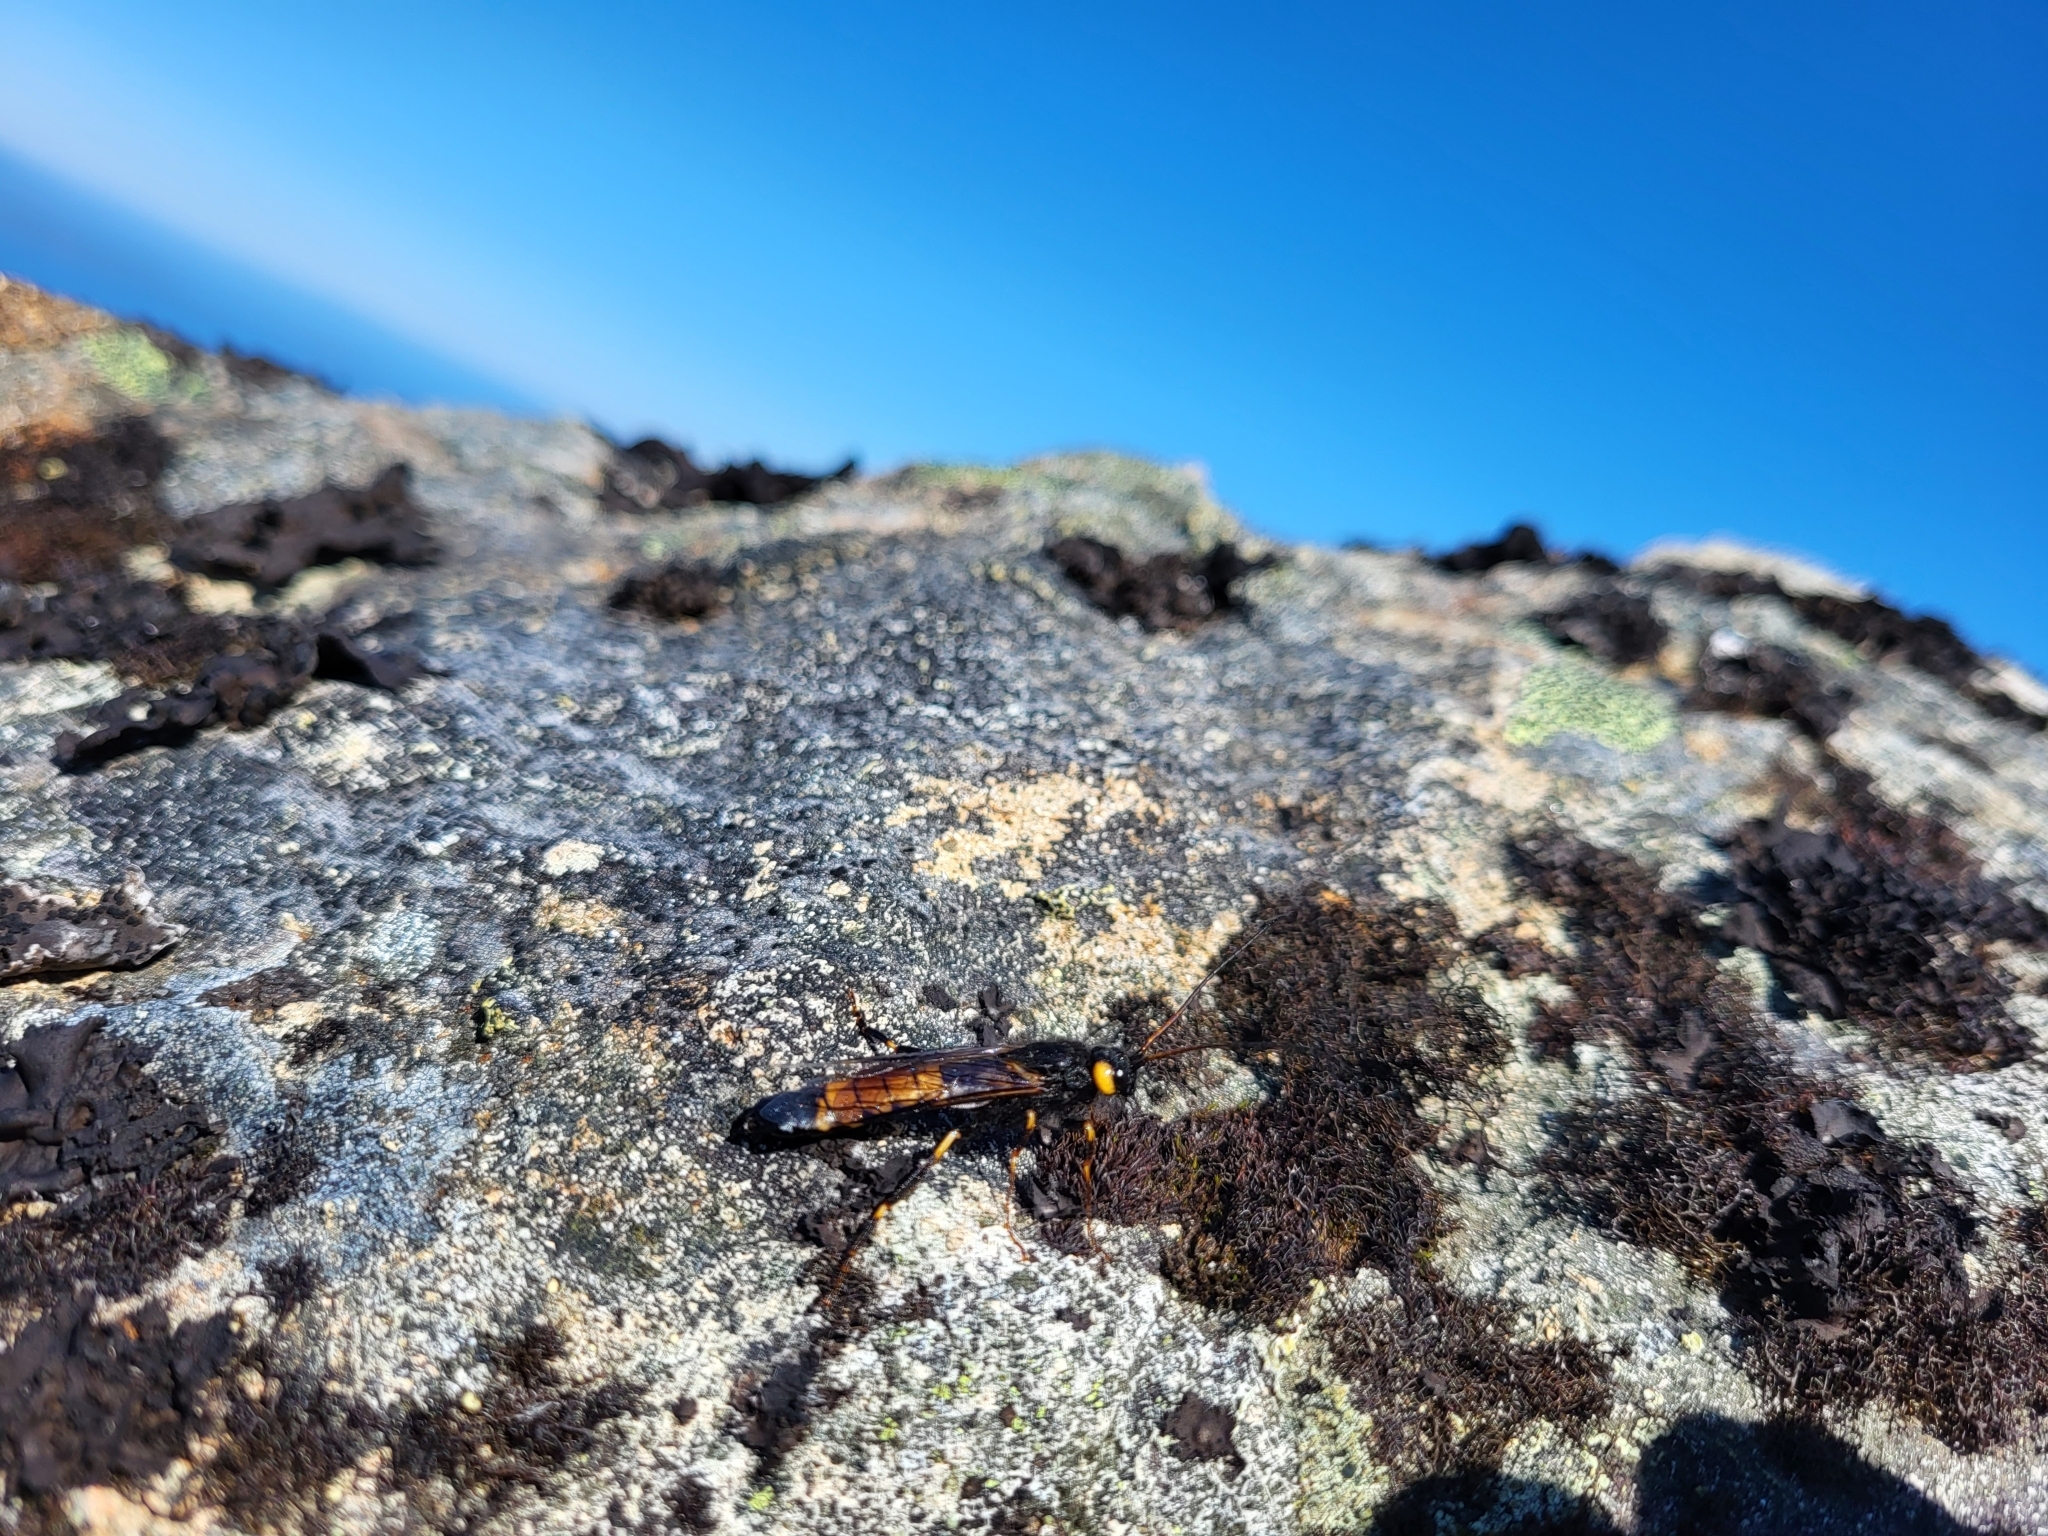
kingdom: Animalia
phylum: Arthropoda
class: Insecta
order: Hymenoptera
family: Siricidae
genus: Urocerus
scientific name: Urocerus flavicornis
